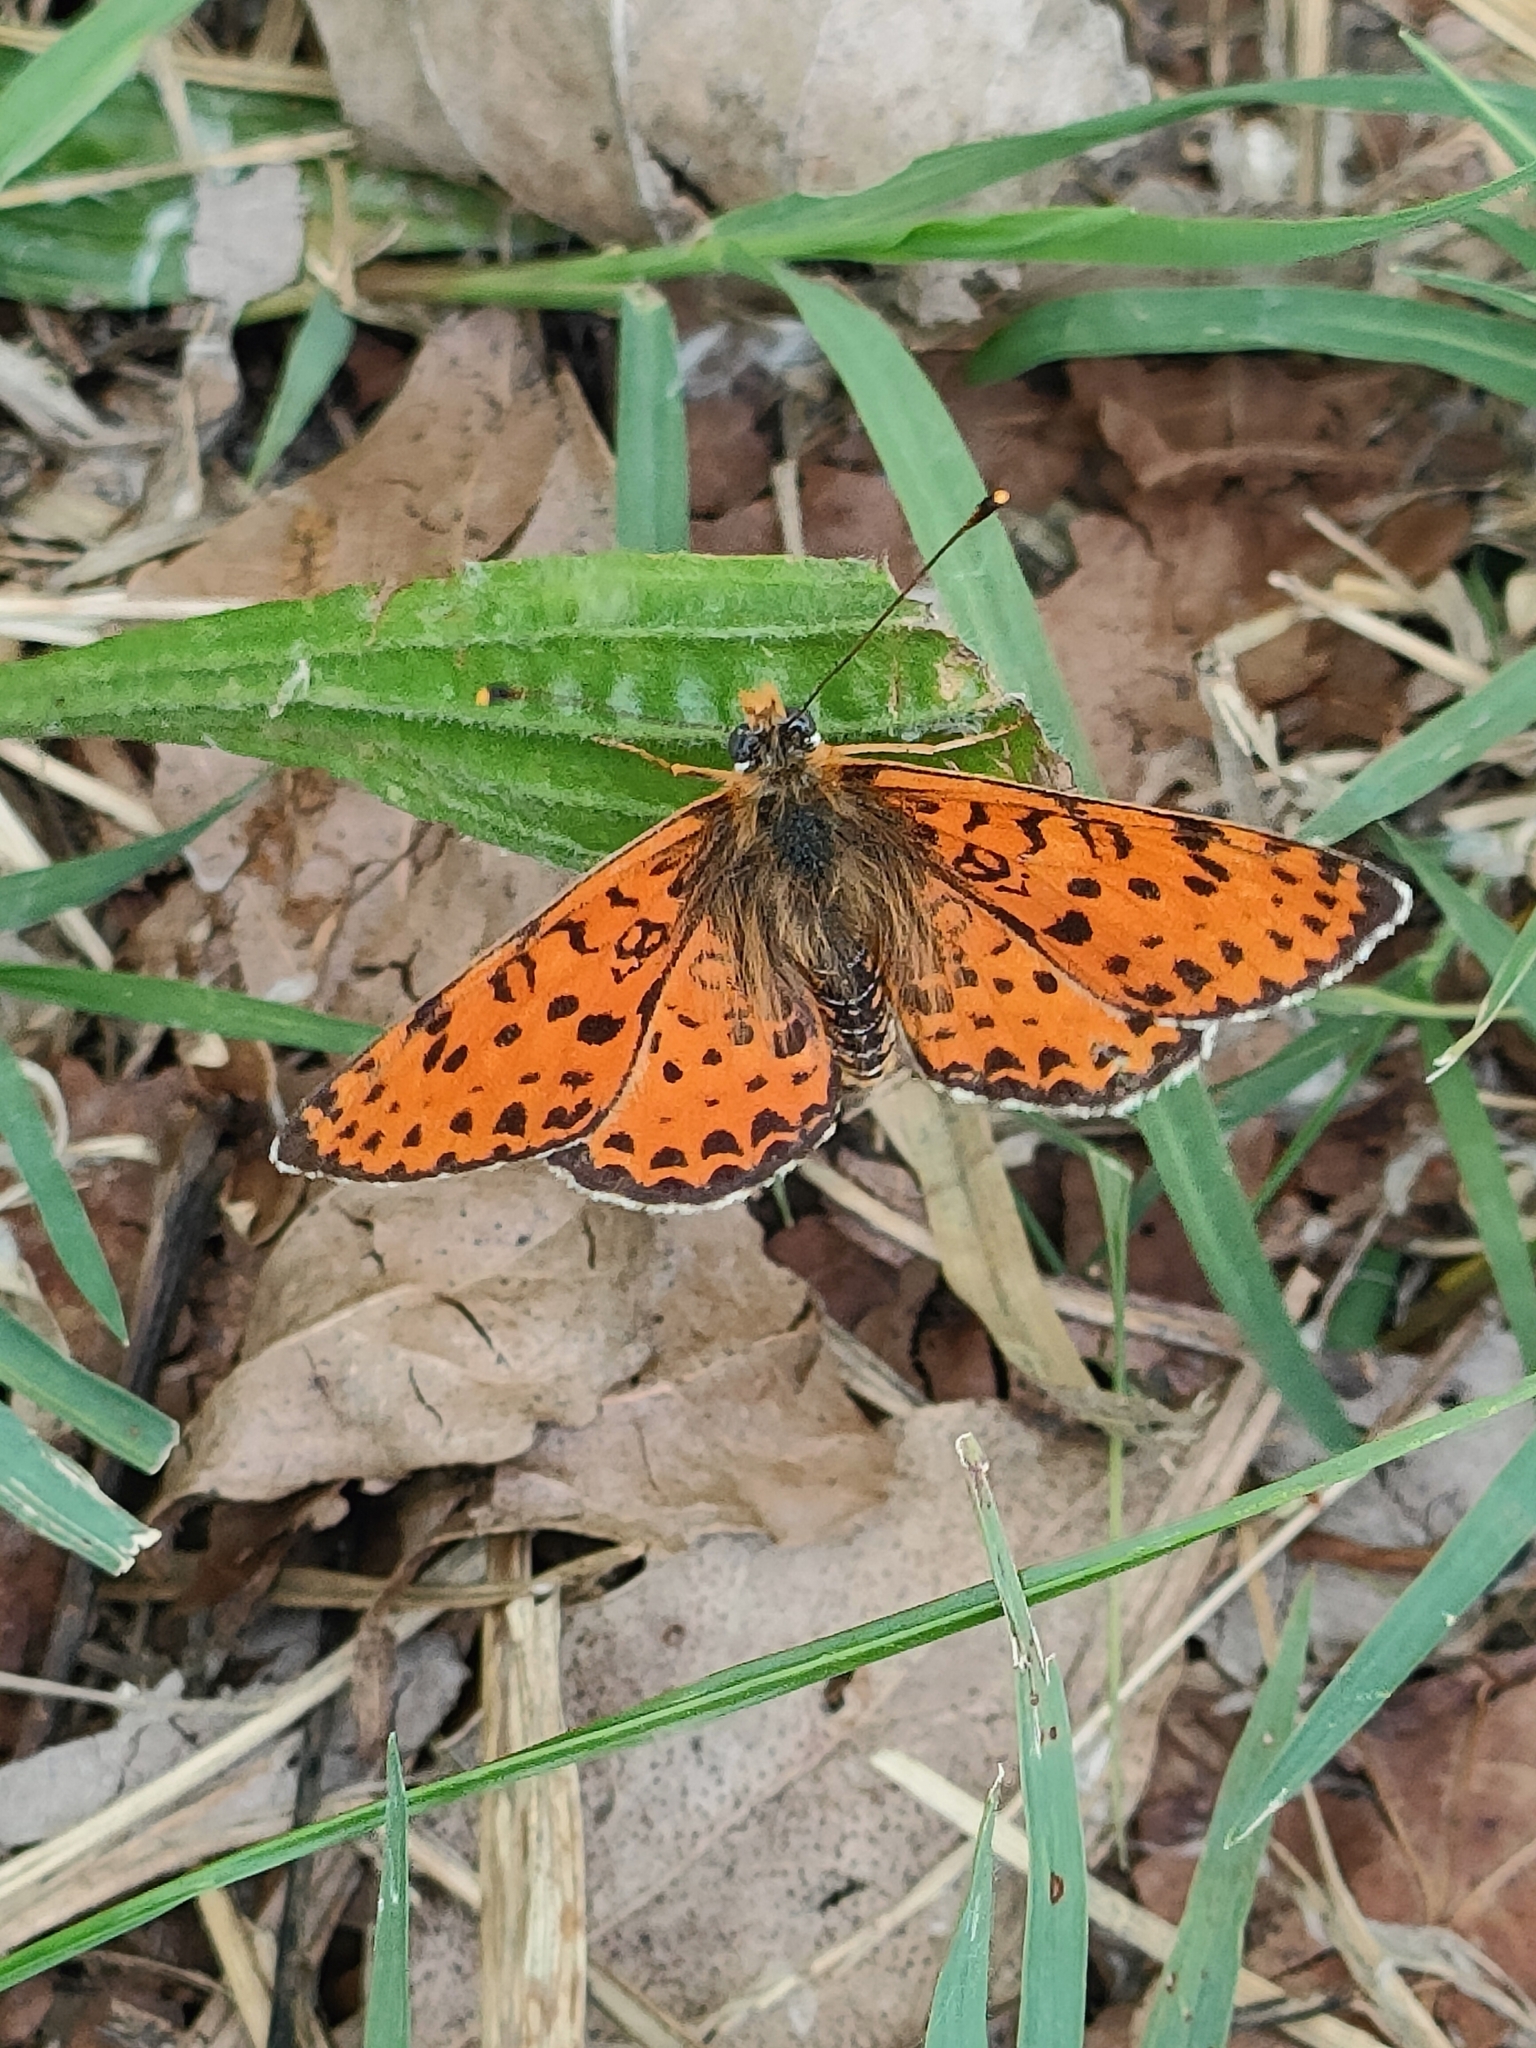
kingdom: Animalia
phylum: Arthropoda
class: Insecta
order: Lepidoptera
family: Nymphalidae
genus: Melitaea
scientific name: Melitaea didyma
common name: Spotted fritillary
